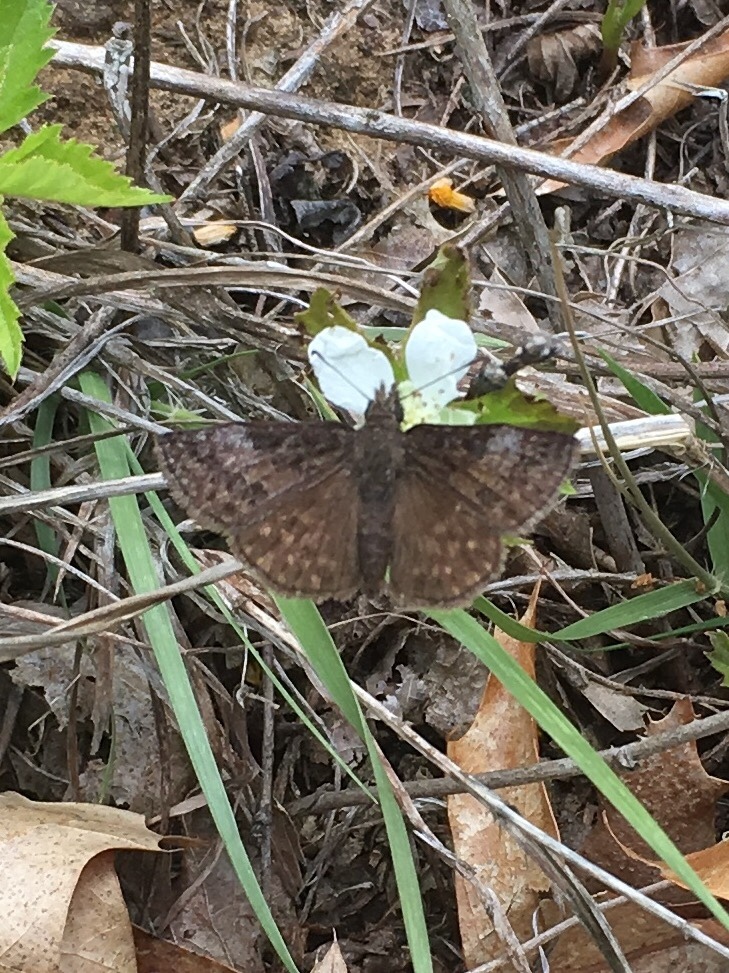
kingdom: Animalia
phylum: Arthropoda
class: Insecta
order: Lepidoptera
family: Hesperiidae
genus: Erynnis
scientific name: Erynnis icelus
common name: Dreamy duskywing
